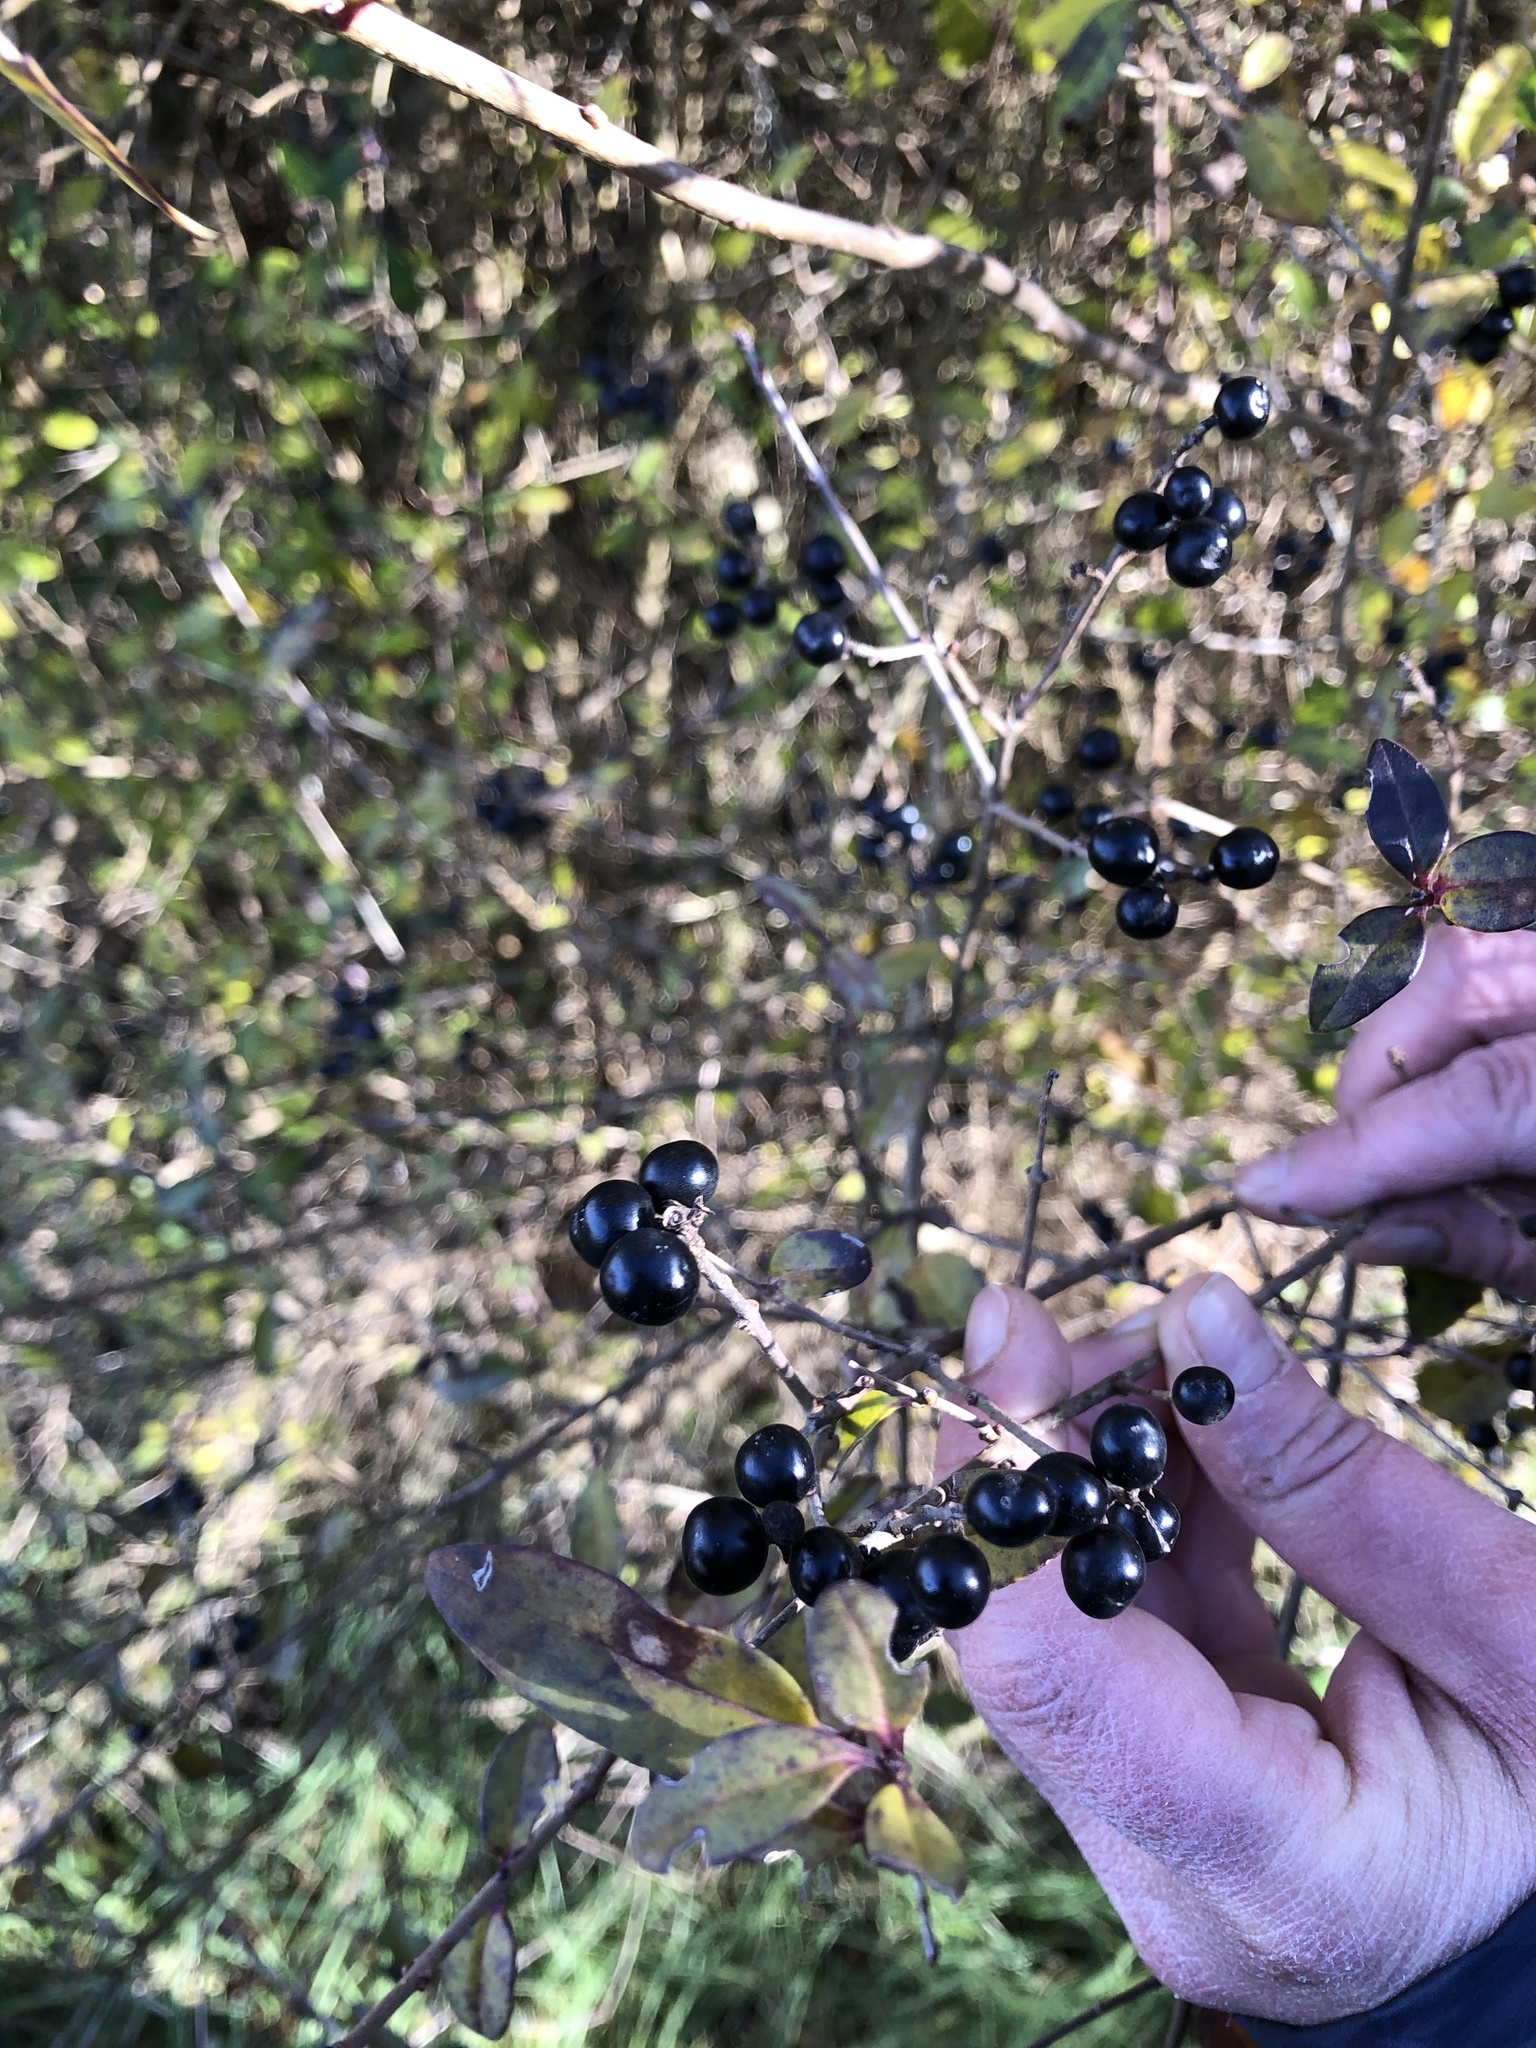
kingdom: Plantae
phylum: Tracheophyta
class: Magnoliopsida
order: Lamiales
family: Oleaceae
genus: Ligustrum
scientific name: Ligustrum vulgare
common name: Wild privet
